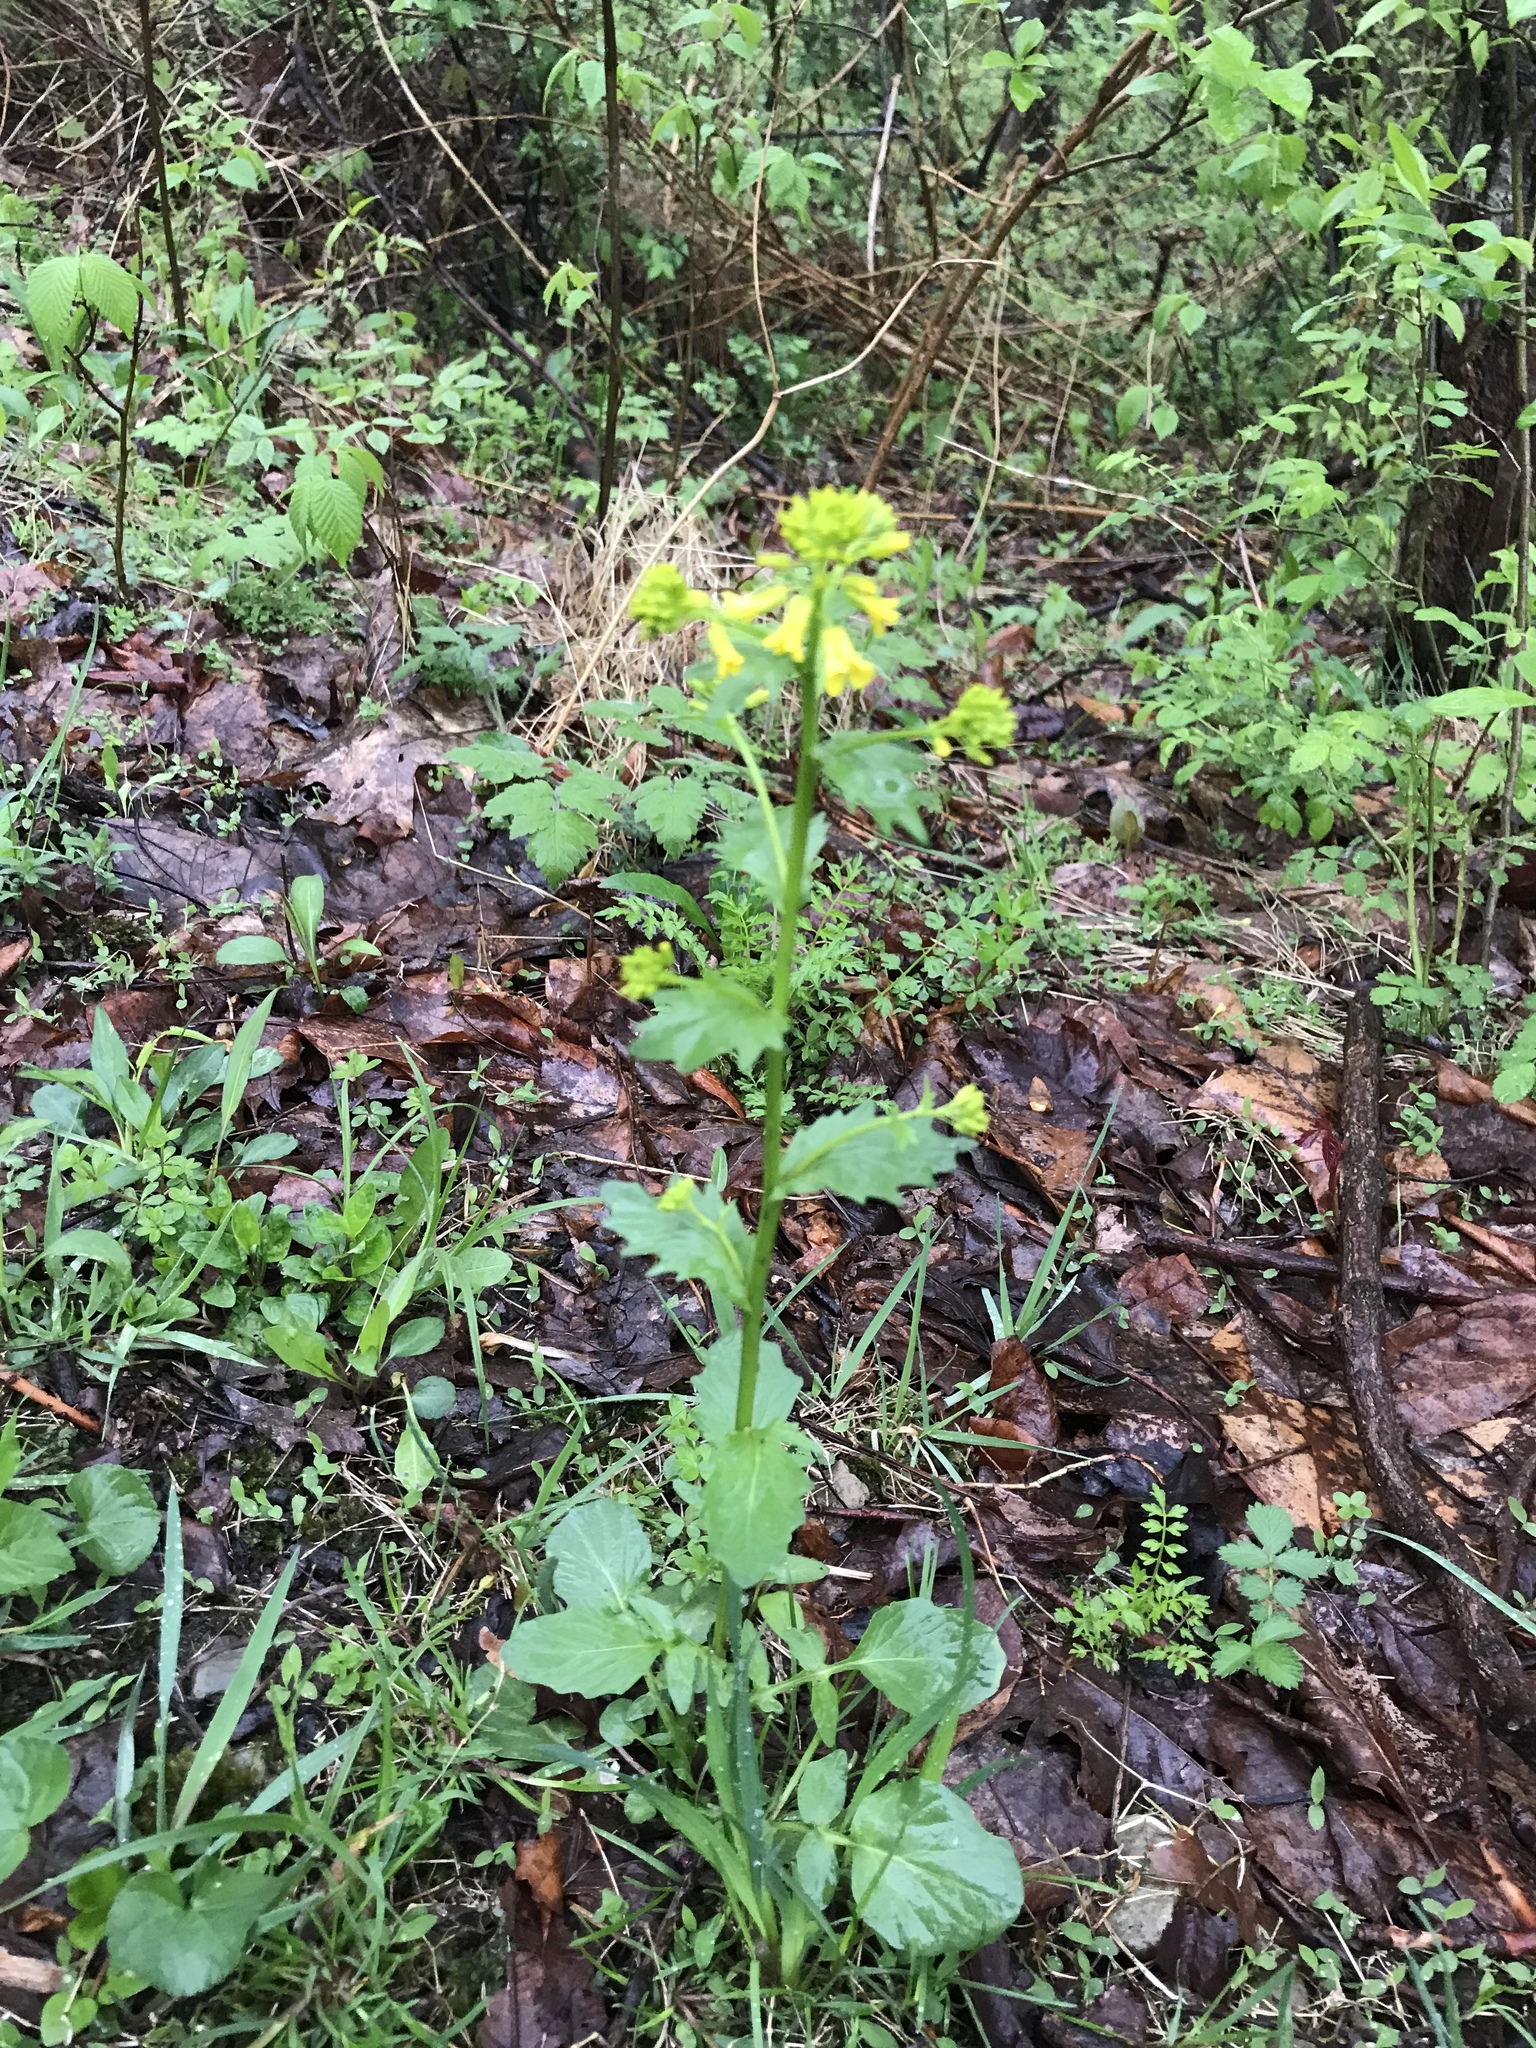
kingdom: Plantae
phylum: Tracheophyta
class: Magnoliopsida
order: Brassicales
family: Brassicaceae
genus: Barbarea
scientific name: Barbarea vulgaris
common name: Cressy-greens
